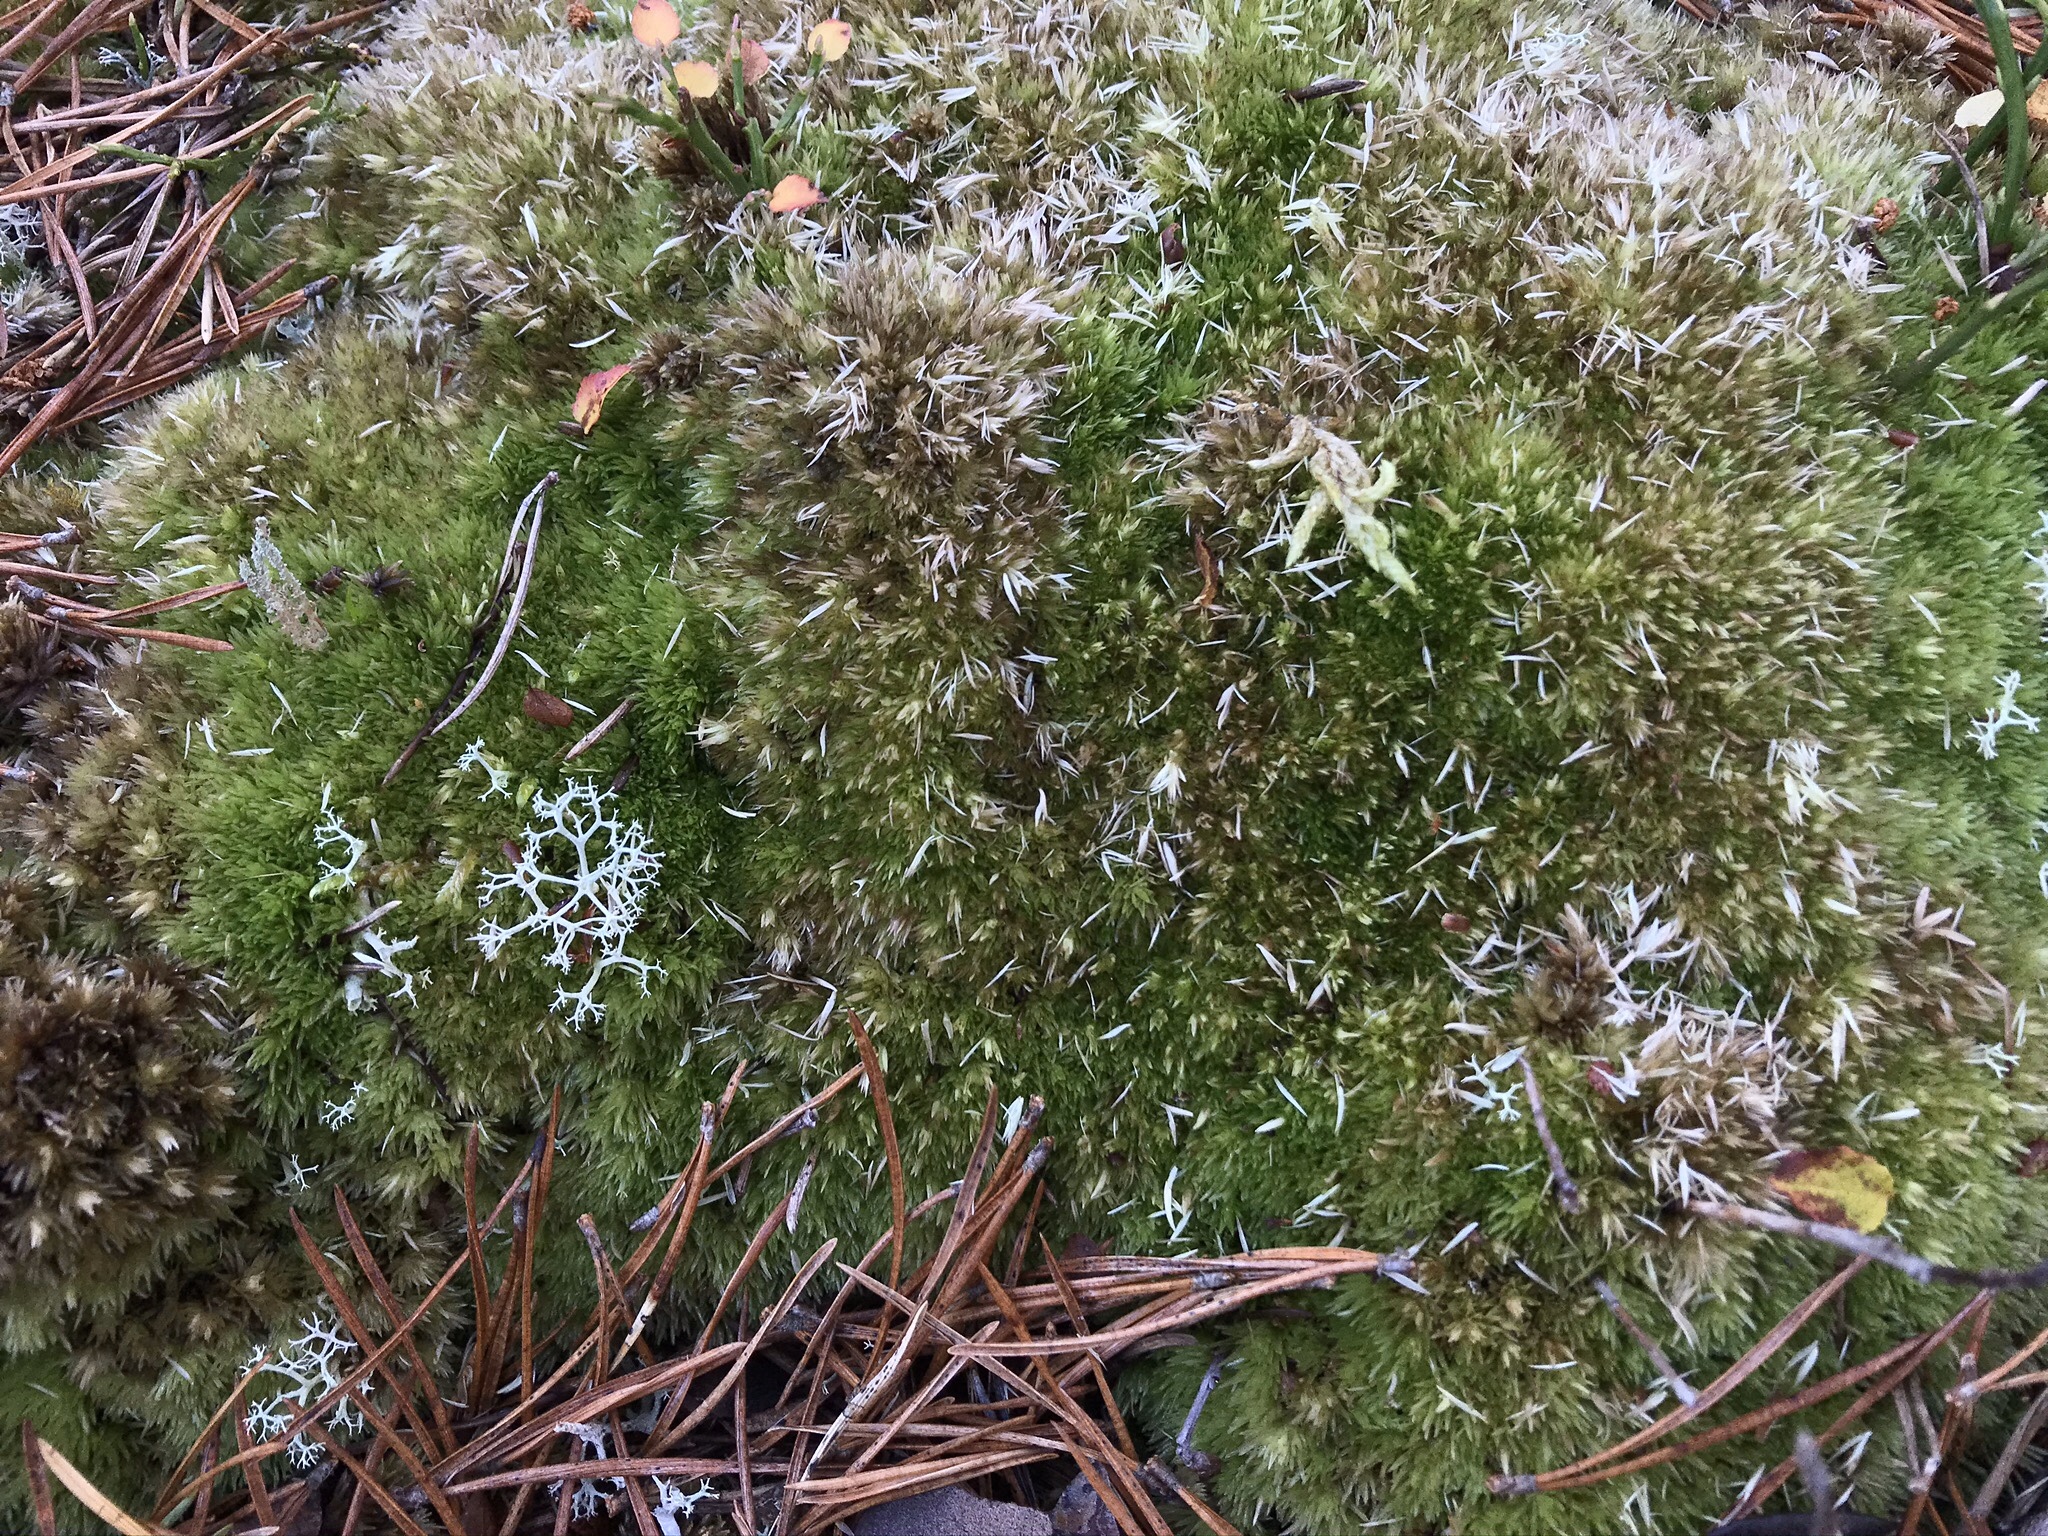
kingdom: Plantae
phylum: Bryophyta
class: Bryopsida
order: Dicranales
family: Leucobryaceae
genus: Leucobryum
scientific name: Leucobryum glaucum
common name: Large white-moss
